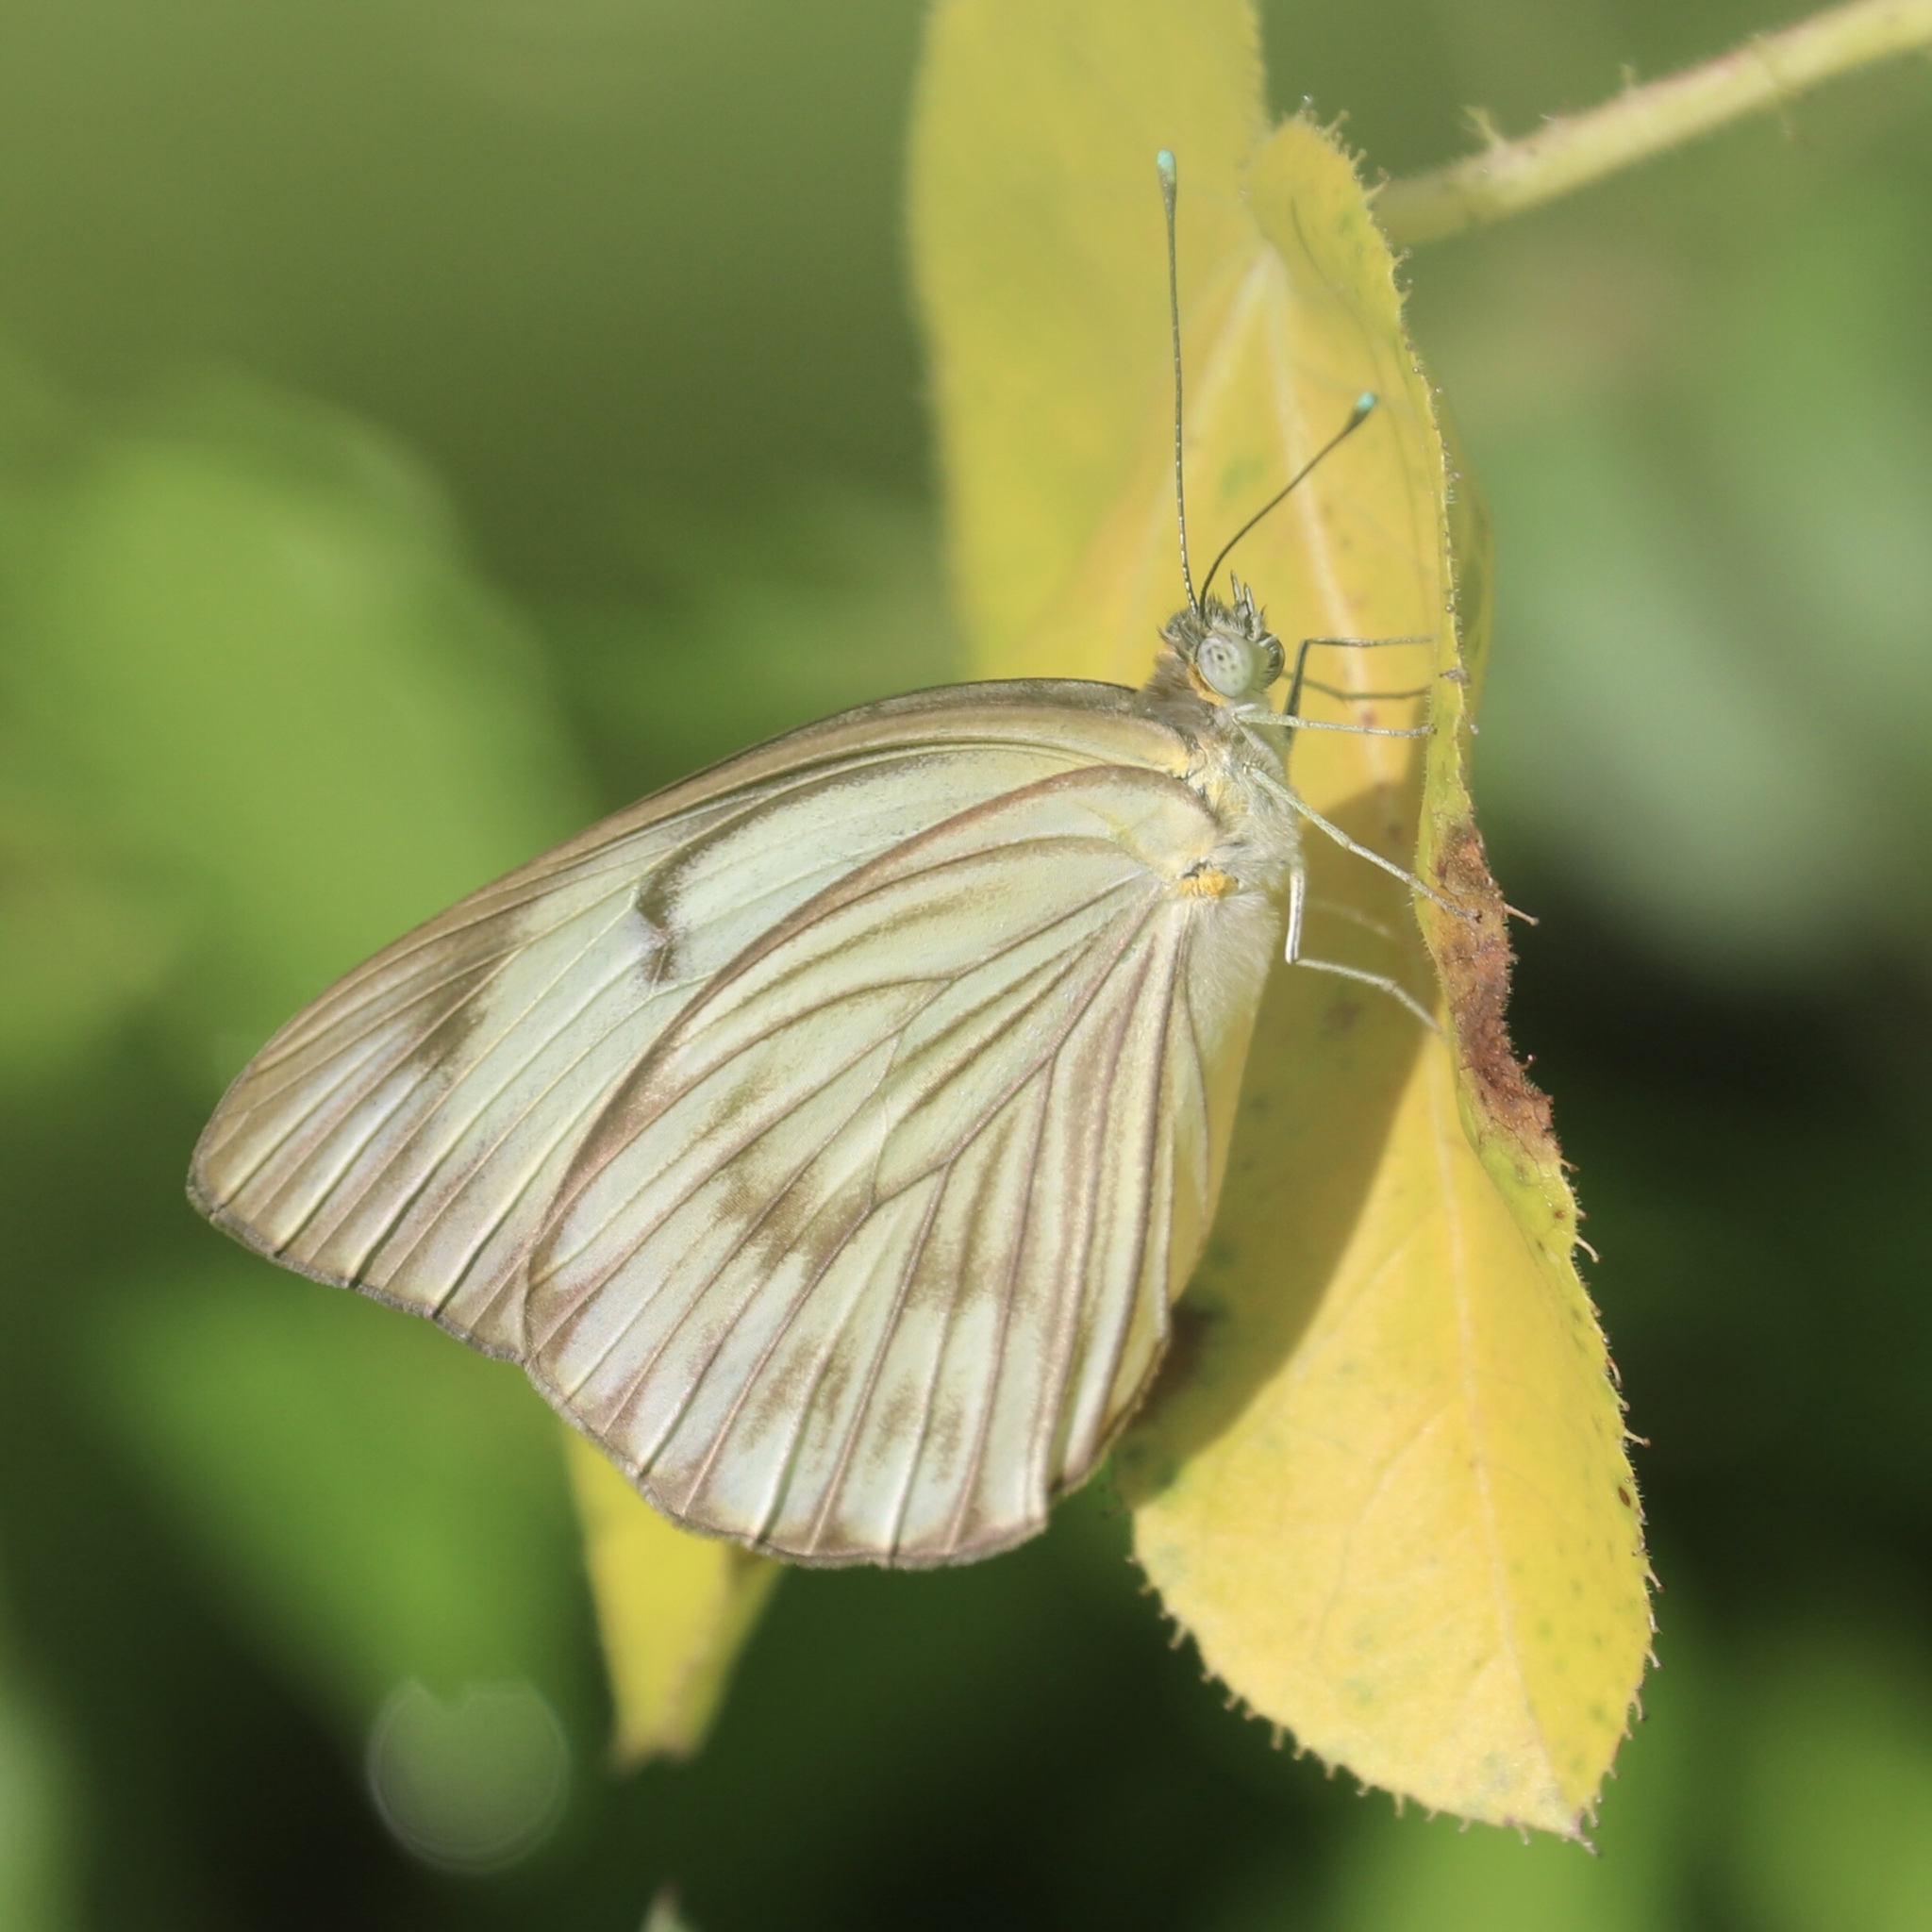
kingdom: Animalia
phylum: Arthropoda
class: Insecta
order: Lepidoptera
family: Pieridae
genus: Ascia
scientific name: Ascia monuste
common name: Great southern white
